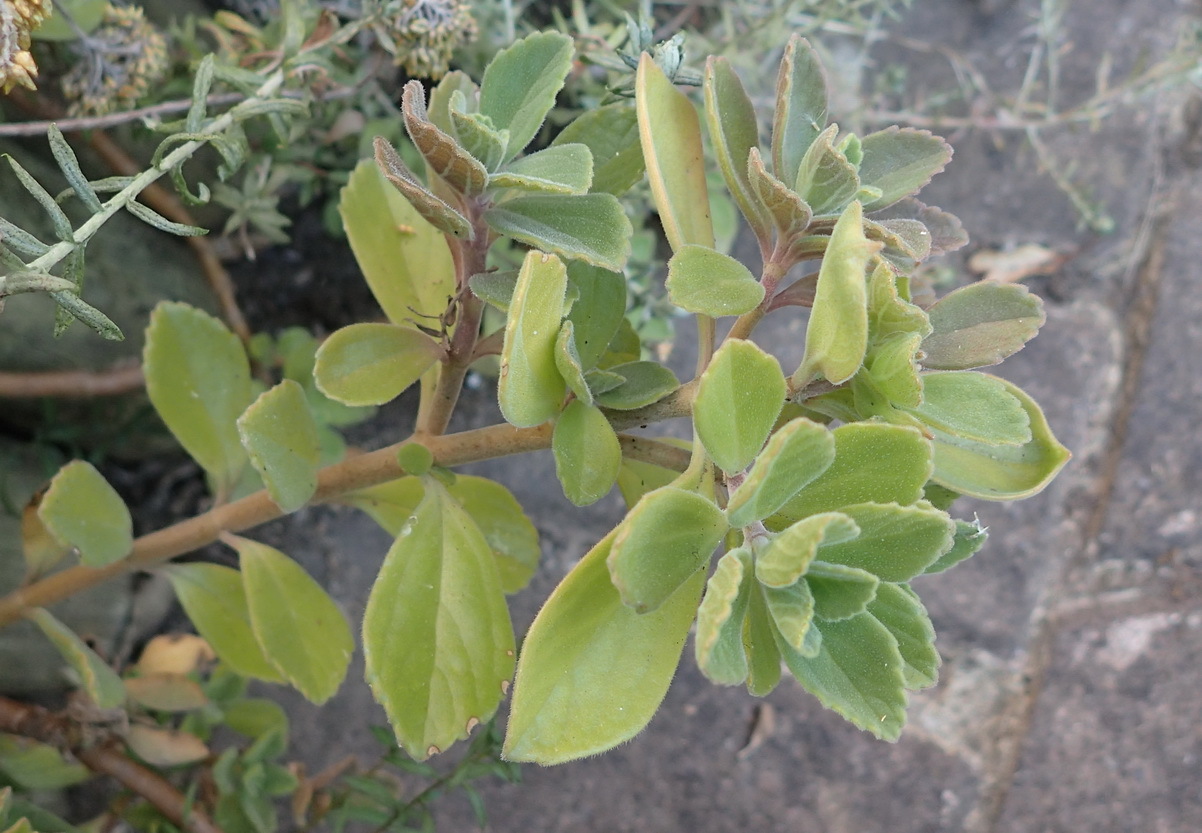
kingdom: Plantae
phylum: Tracheophyta
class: Magnoliopsida
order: Lamiales
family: Lamiaceae
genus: Coleus
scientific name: Coleus neochilus
